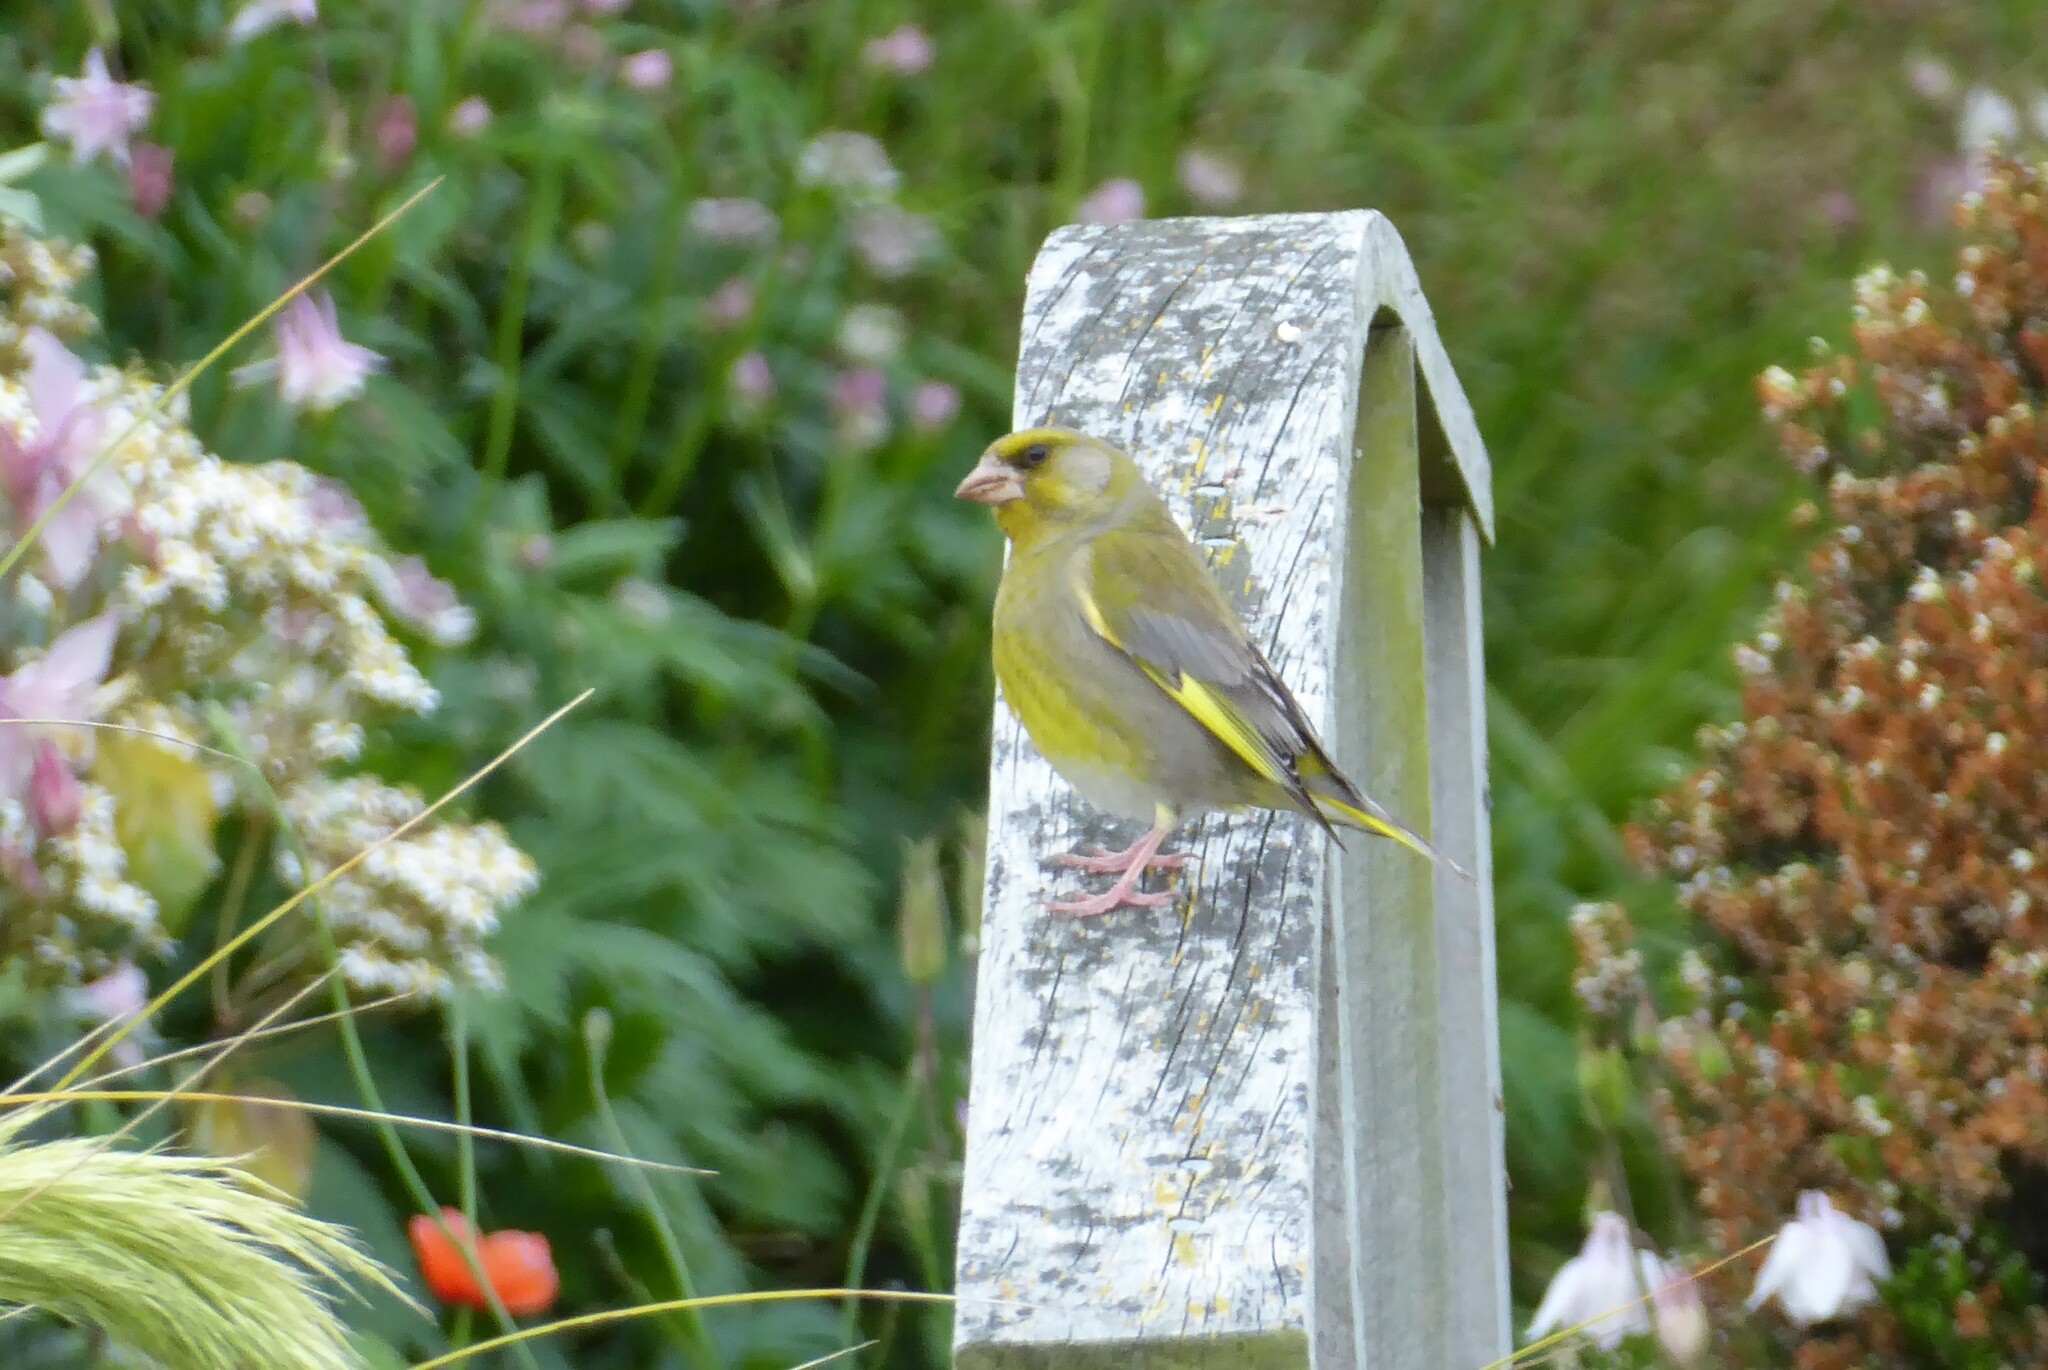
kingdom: Plantae
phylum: Tracheophyta
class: Liliopsida
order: Poales
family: Poaceae
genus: Chloris
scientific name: Chloris chloris
